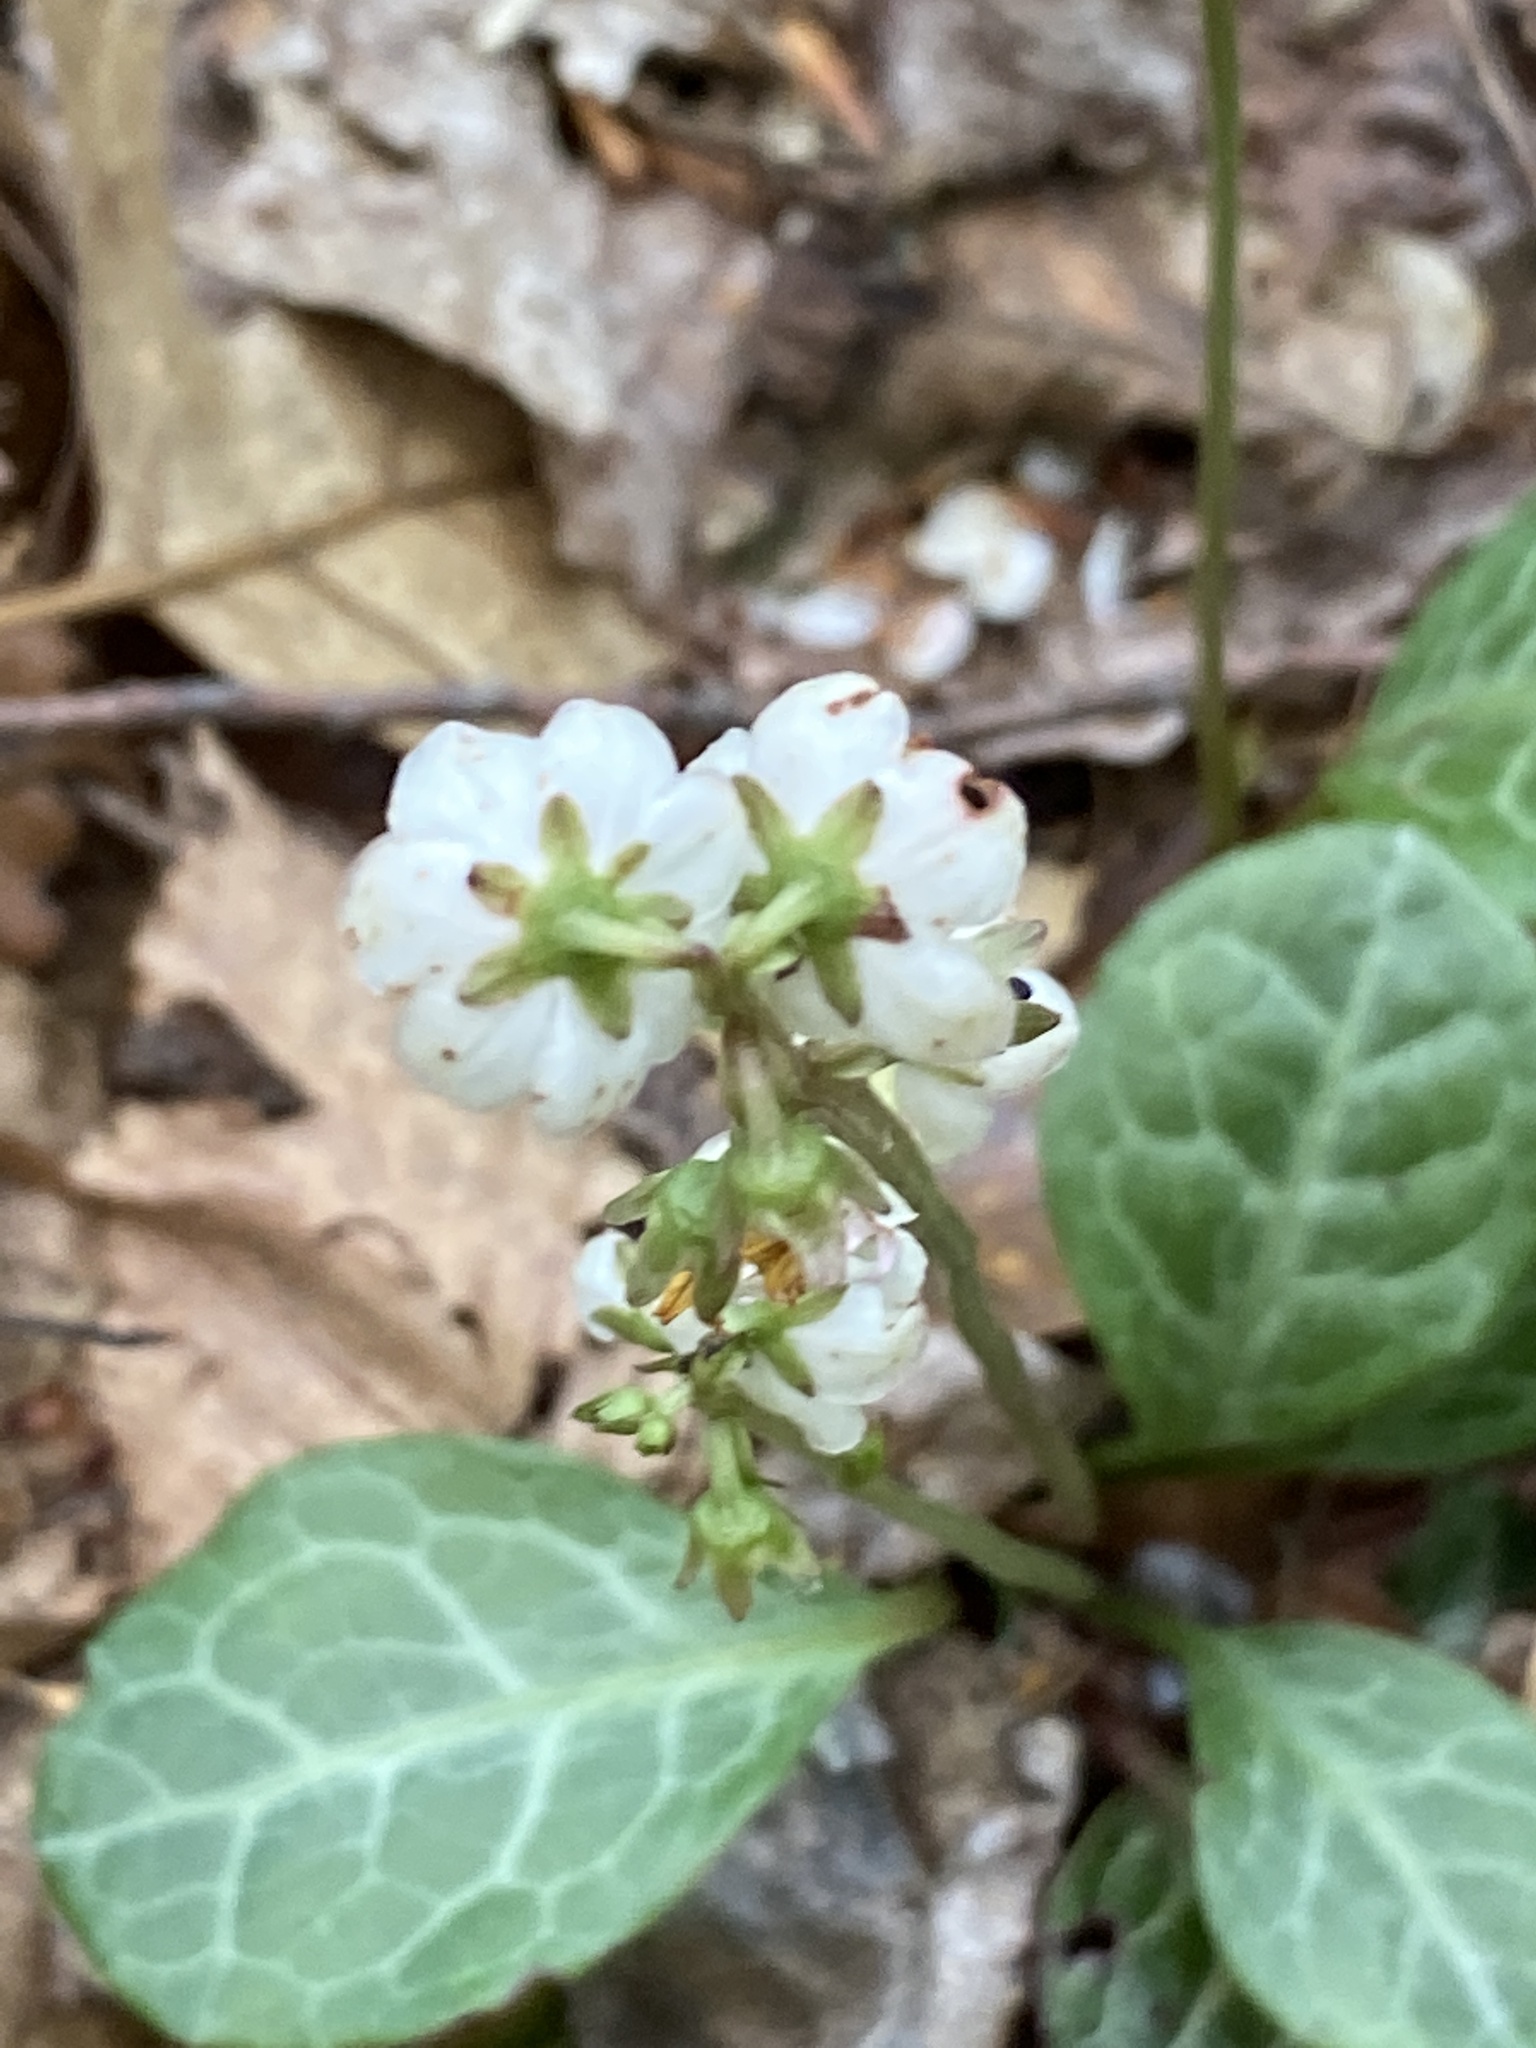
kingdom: Plantae
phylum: Tracheophyta
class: Magnoliopsida
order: Ericales
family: Ericaceae
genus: Pyrola
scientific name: Pyrola americana
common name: American wintergreen
